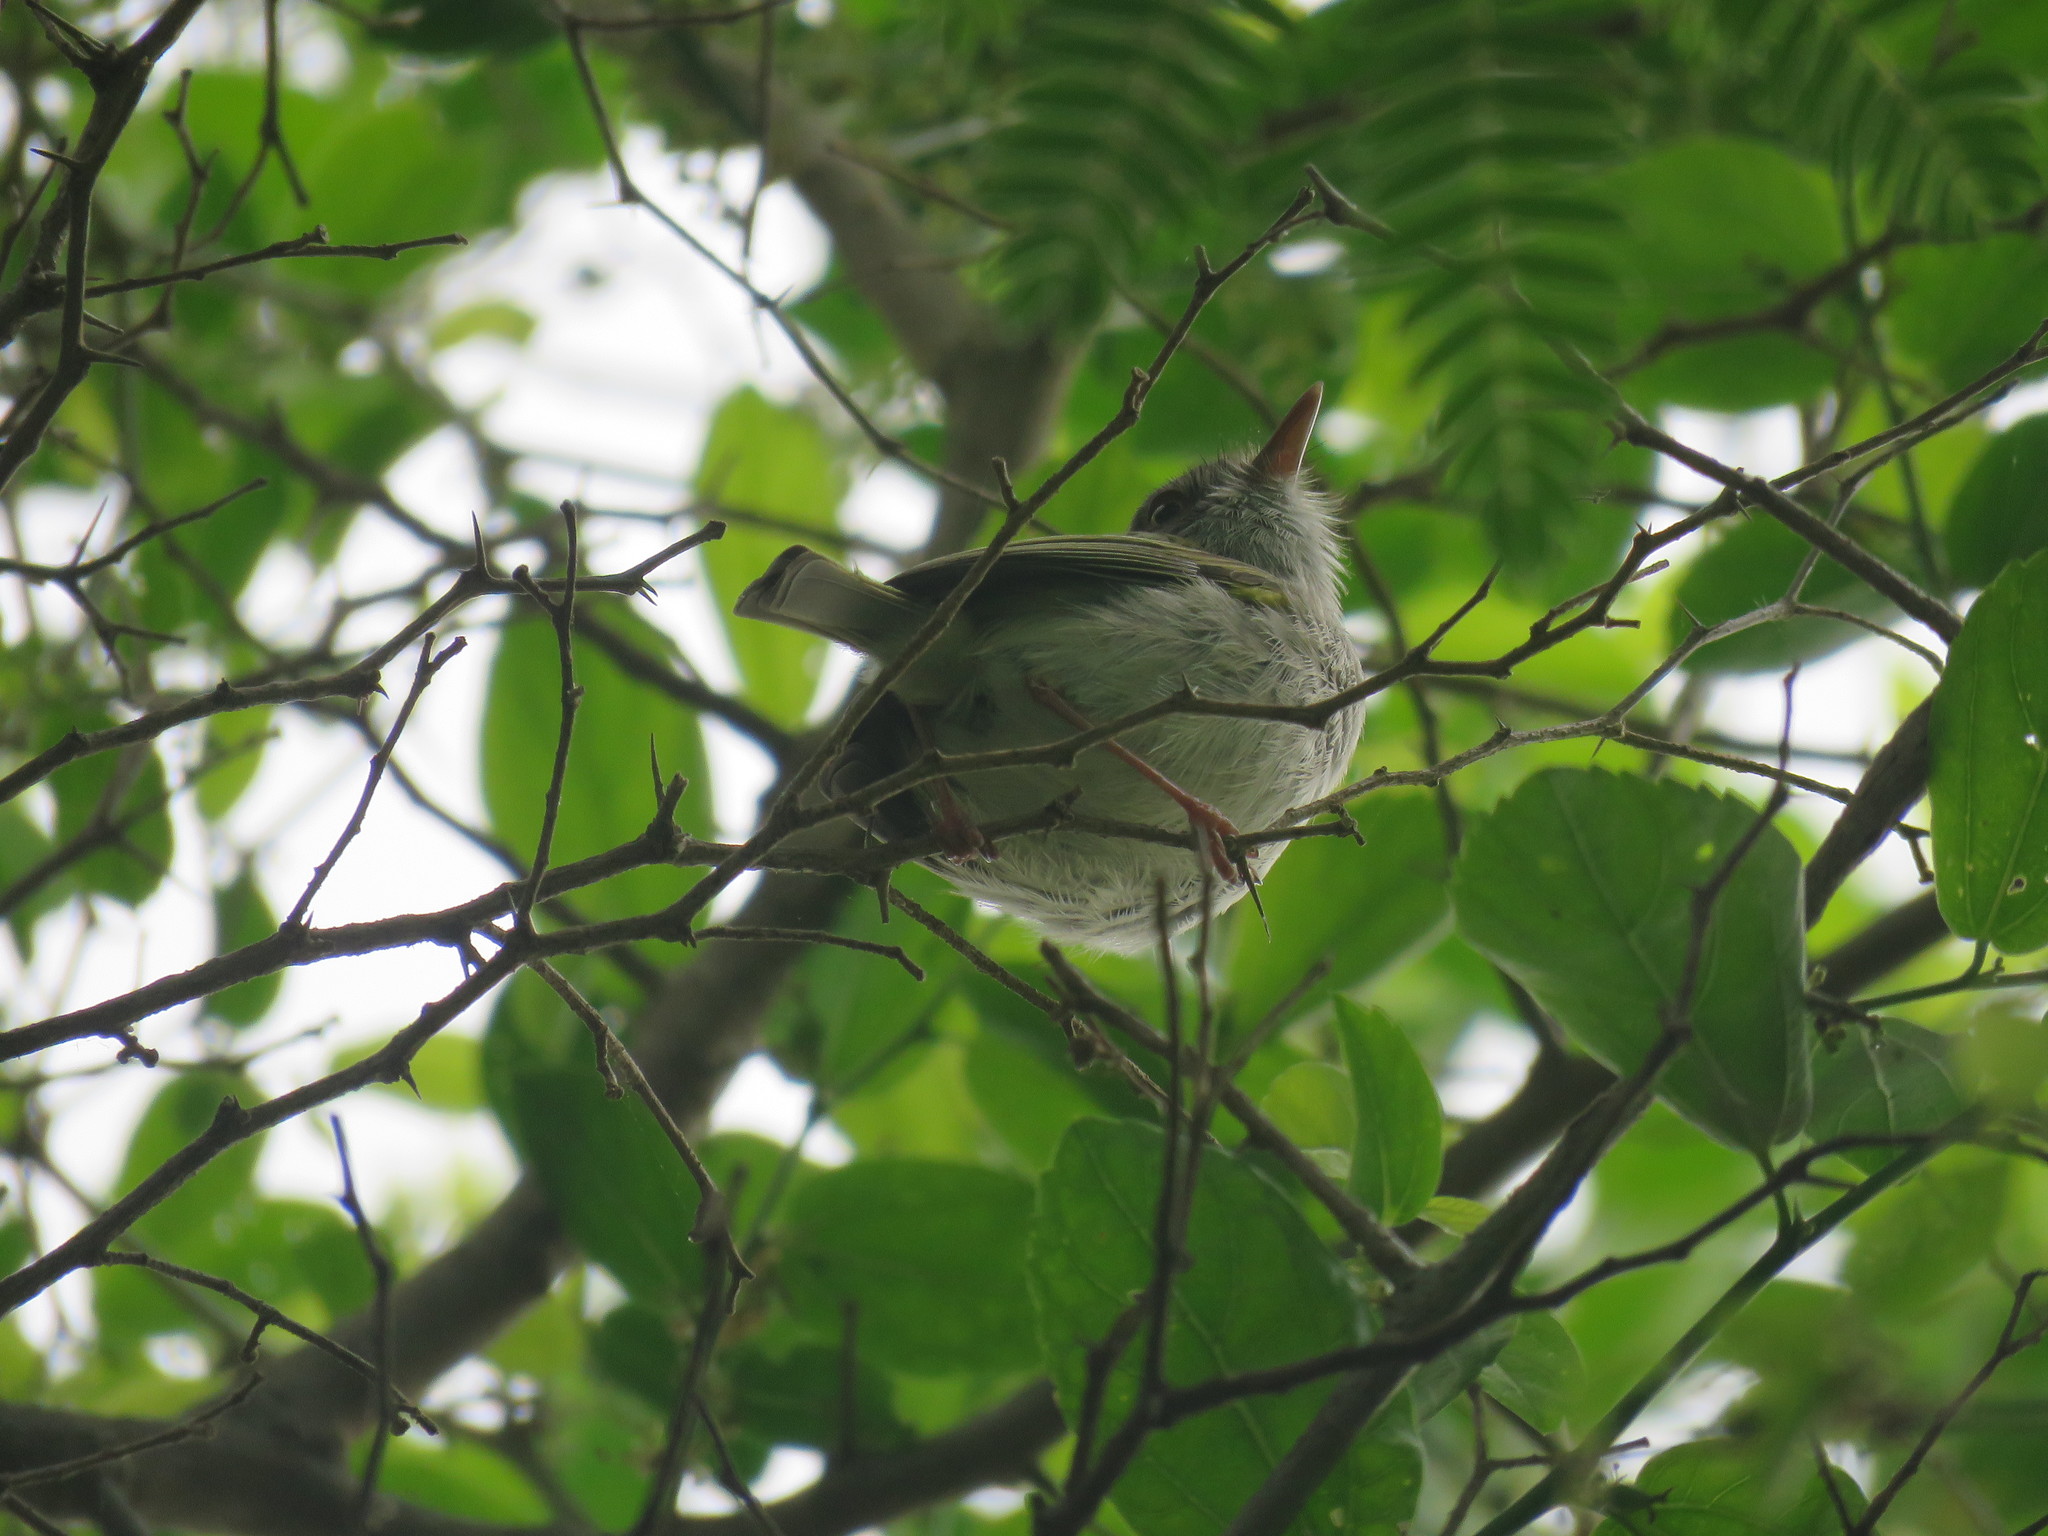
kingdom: Animalia
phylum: Chordata
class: Aves
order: Passeriformes
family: Tyrannidae
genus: Hemitriccus
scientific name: Hemitriccus margaritaceiventer
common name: Pearly-vented tody-tyrant
